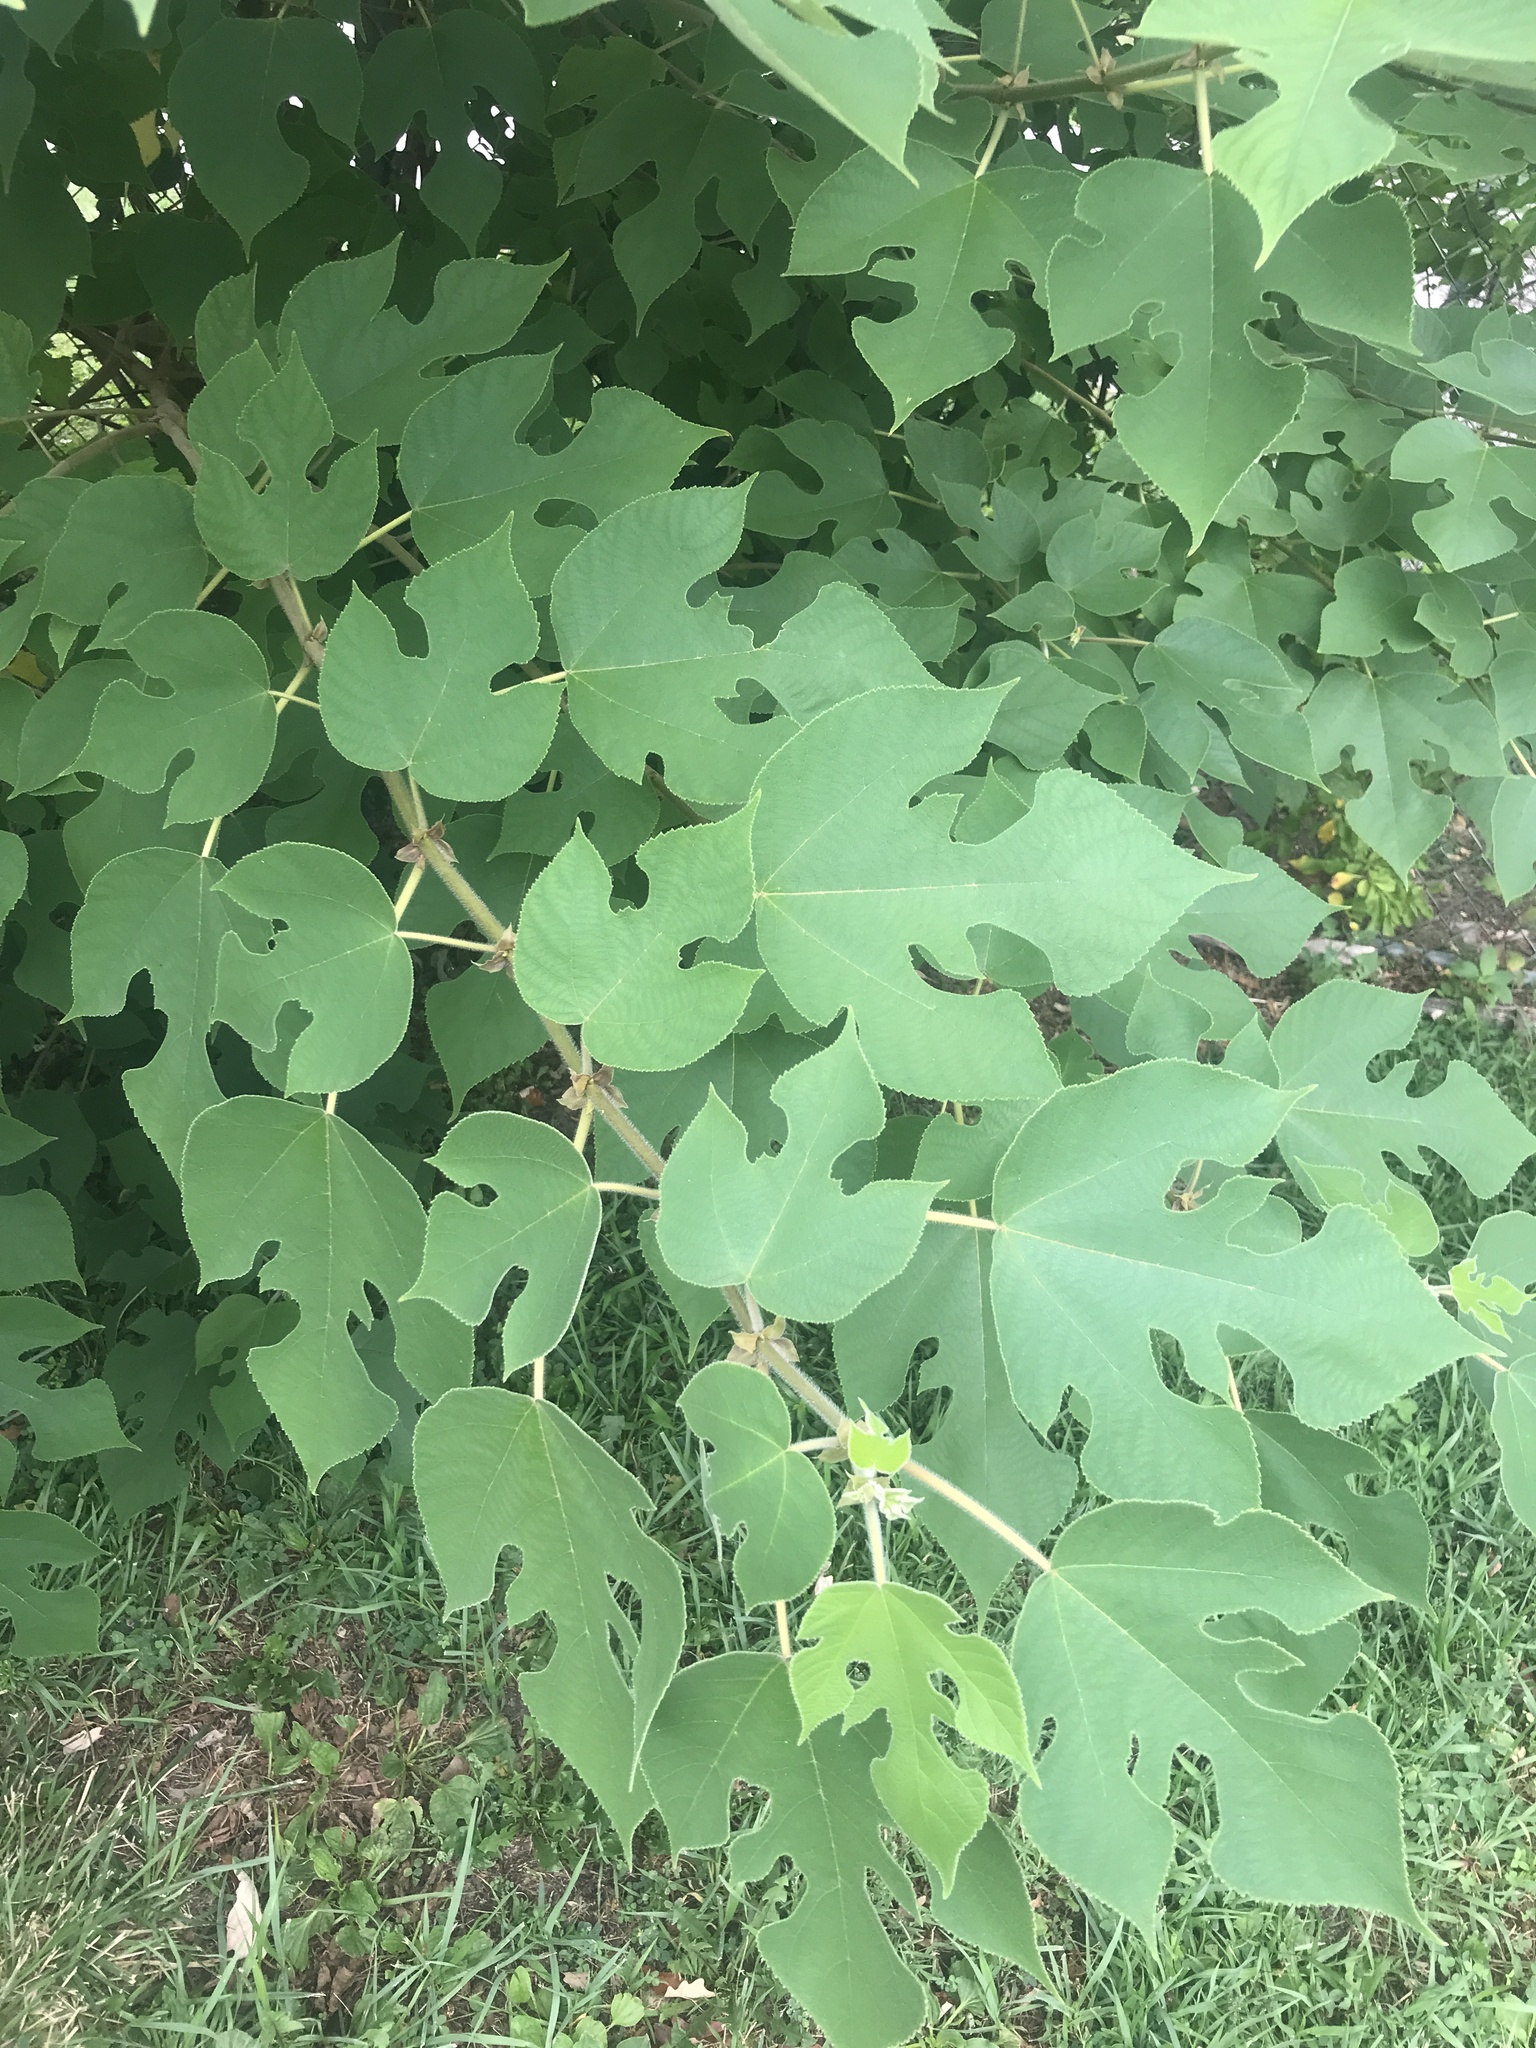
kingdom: Plantae
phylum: Tracheophyta
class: Magnoliopsida
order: Rosales
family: Moraceae
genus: Broussonetia
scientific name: Broussonetia papyrifera
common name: Paper mulberry
